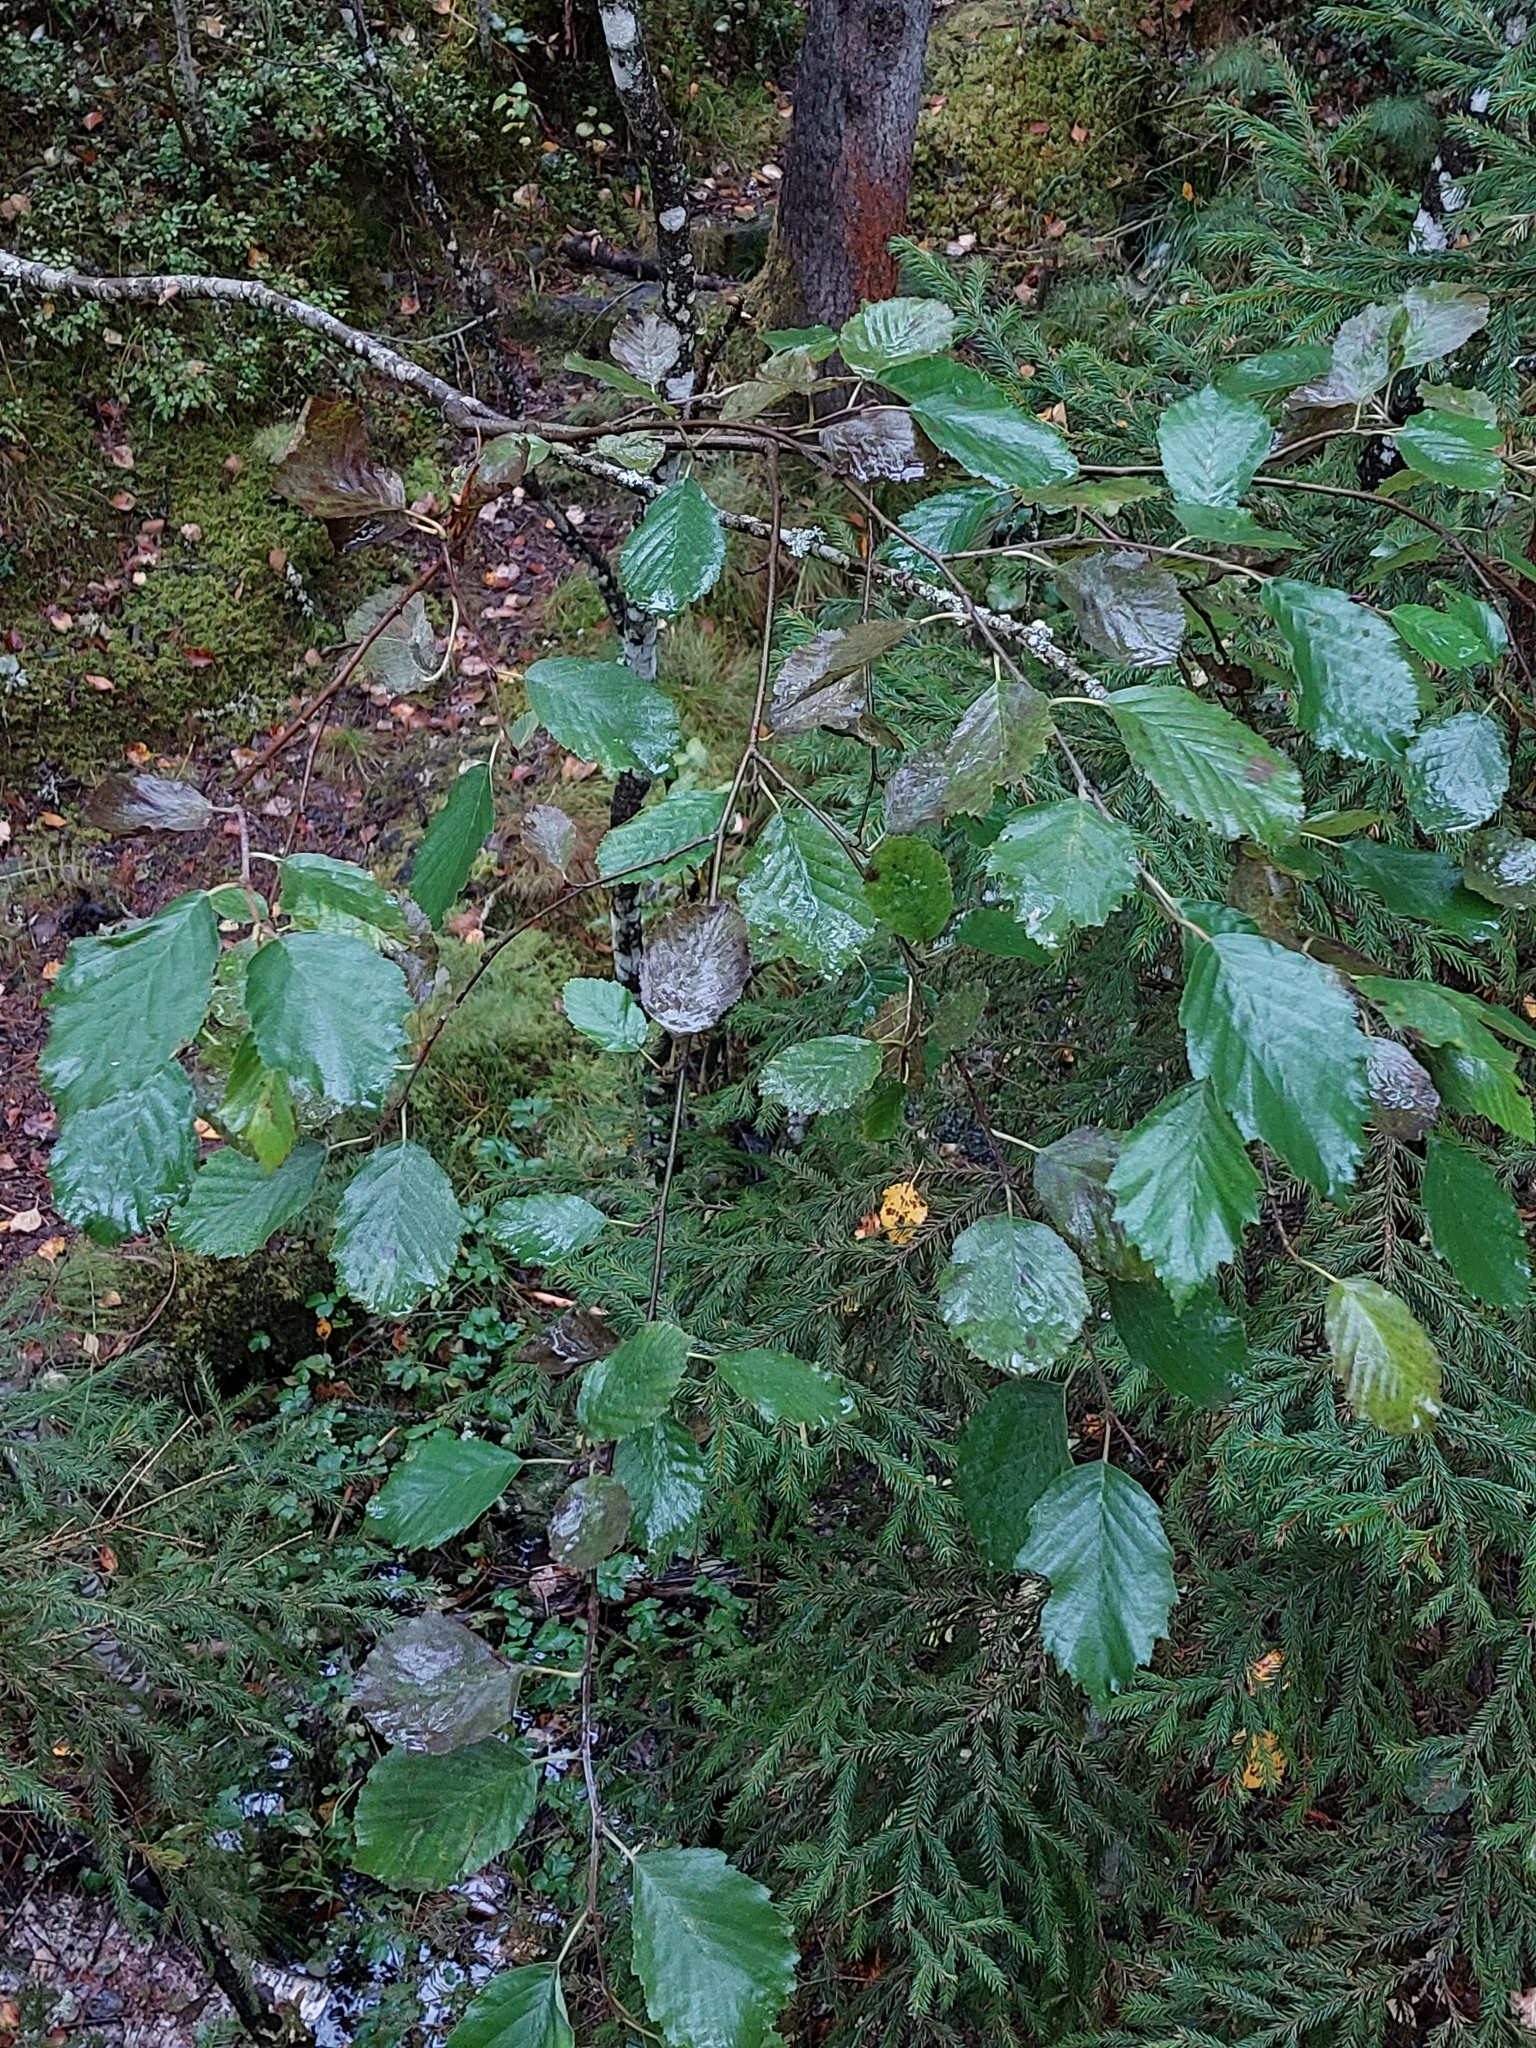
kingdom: Plantae
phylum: Tracheophyta
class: Magnoliopsida
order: Fagales
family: Betulaceae
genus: Alnus
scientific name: Alnus incana
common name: Grey alder
